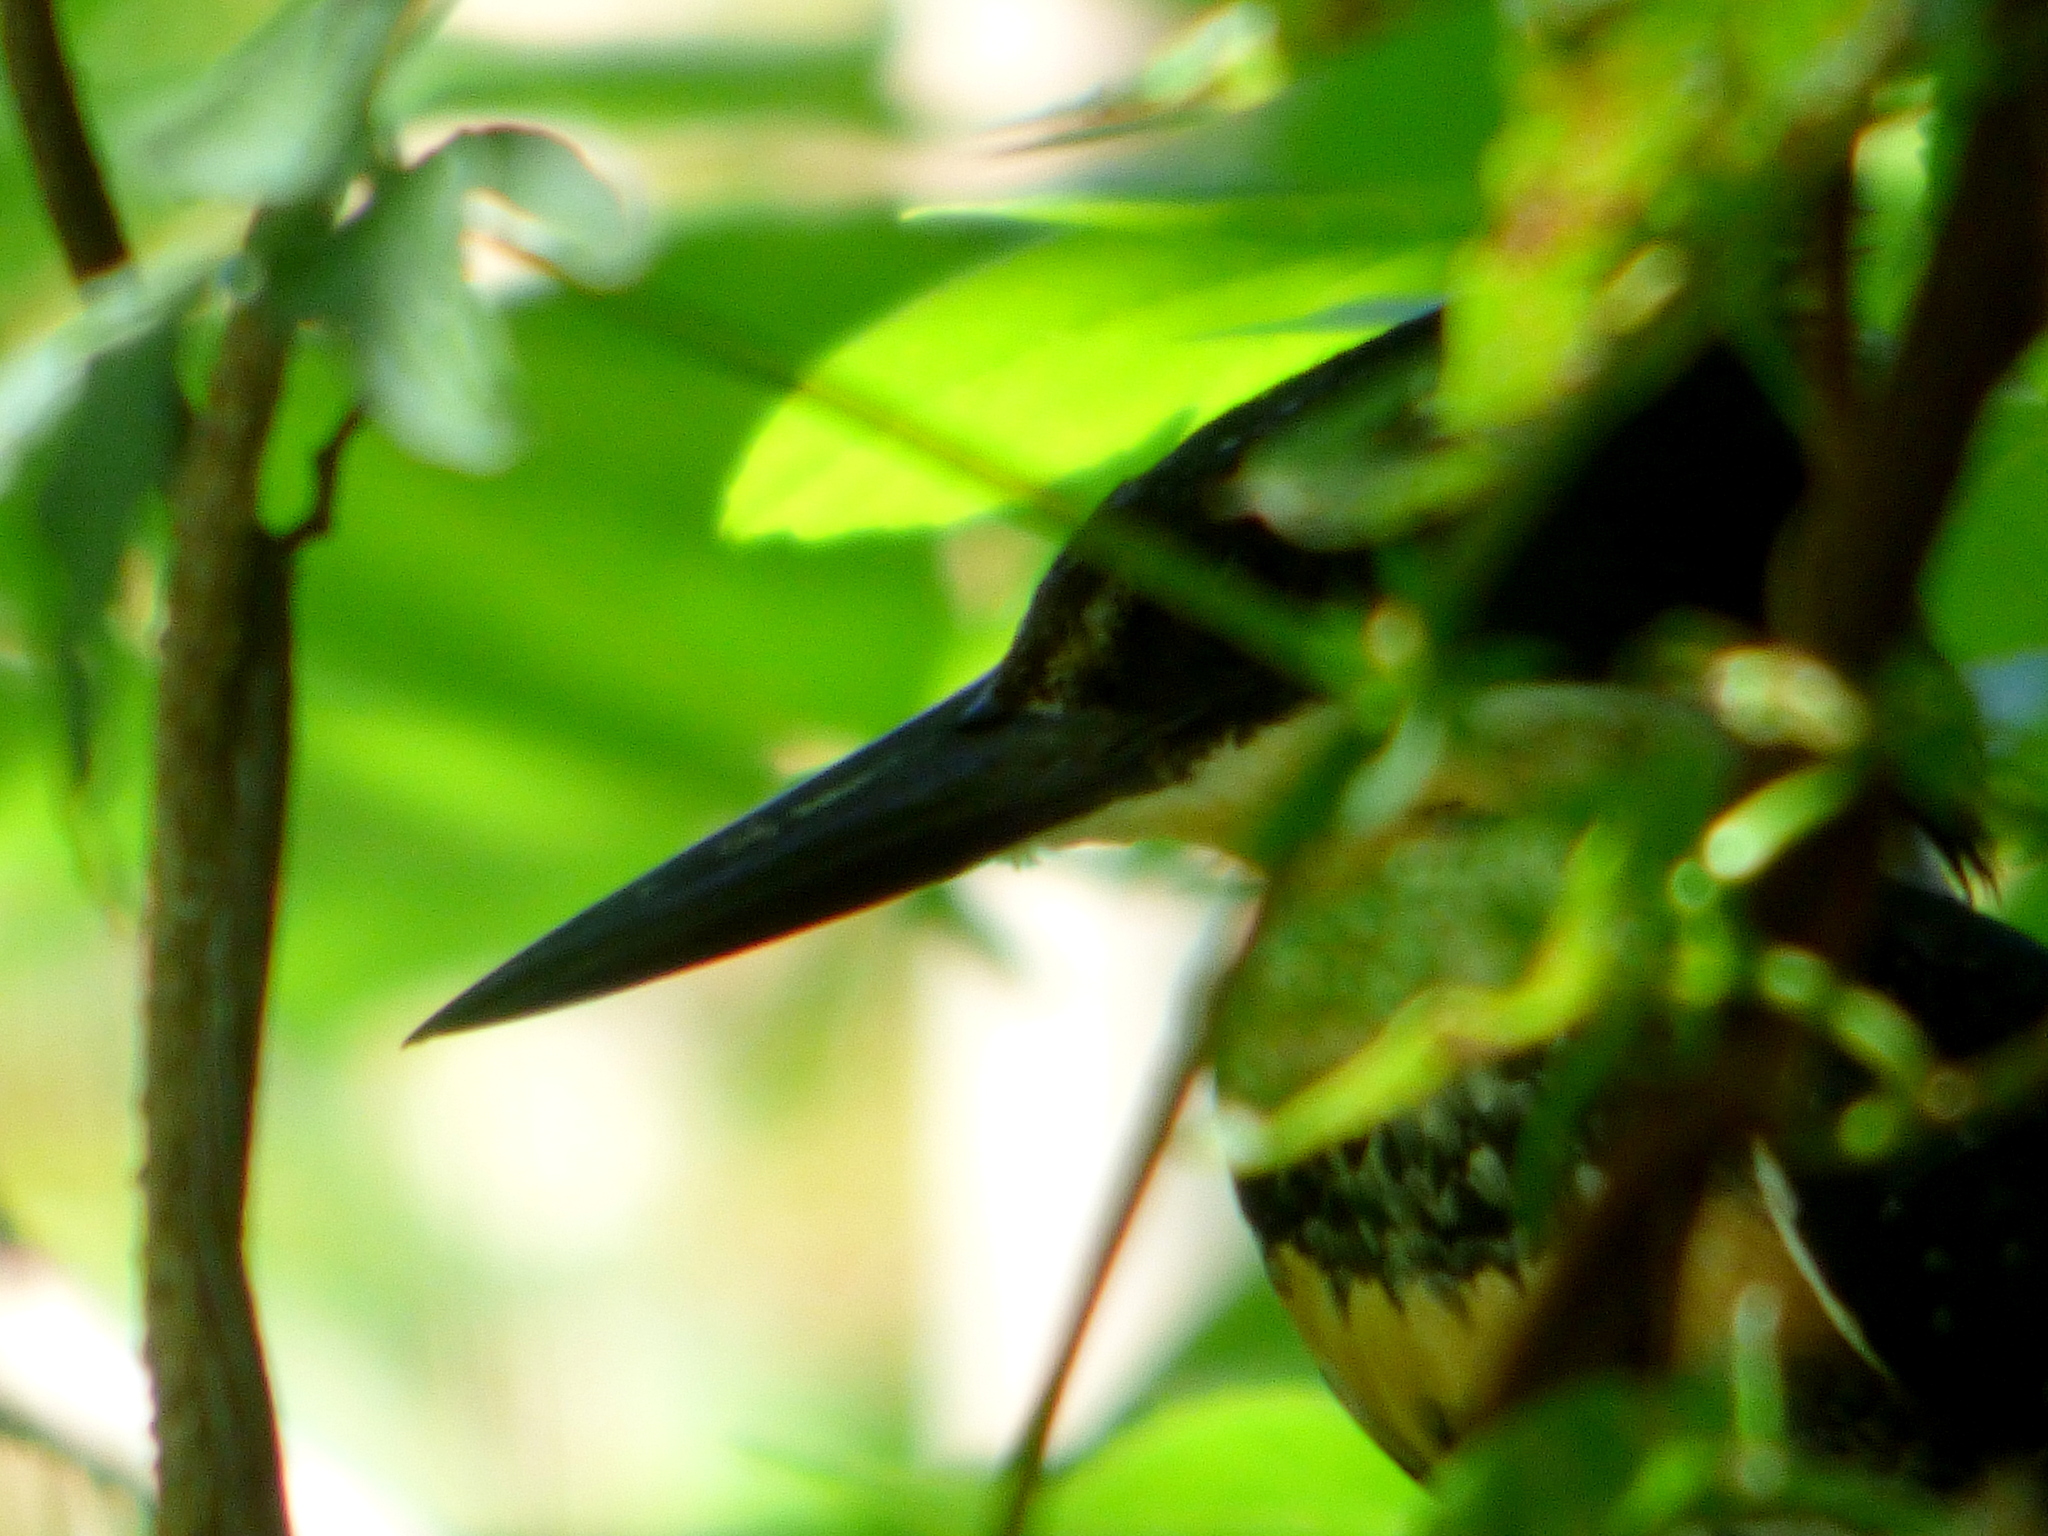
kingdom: Animalia
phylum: Chordata
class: Aves
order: Coraciiformes
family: Alcedinidae
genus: Chloroceryle
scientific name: Chloroceryle americana
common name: Green kingfisher
